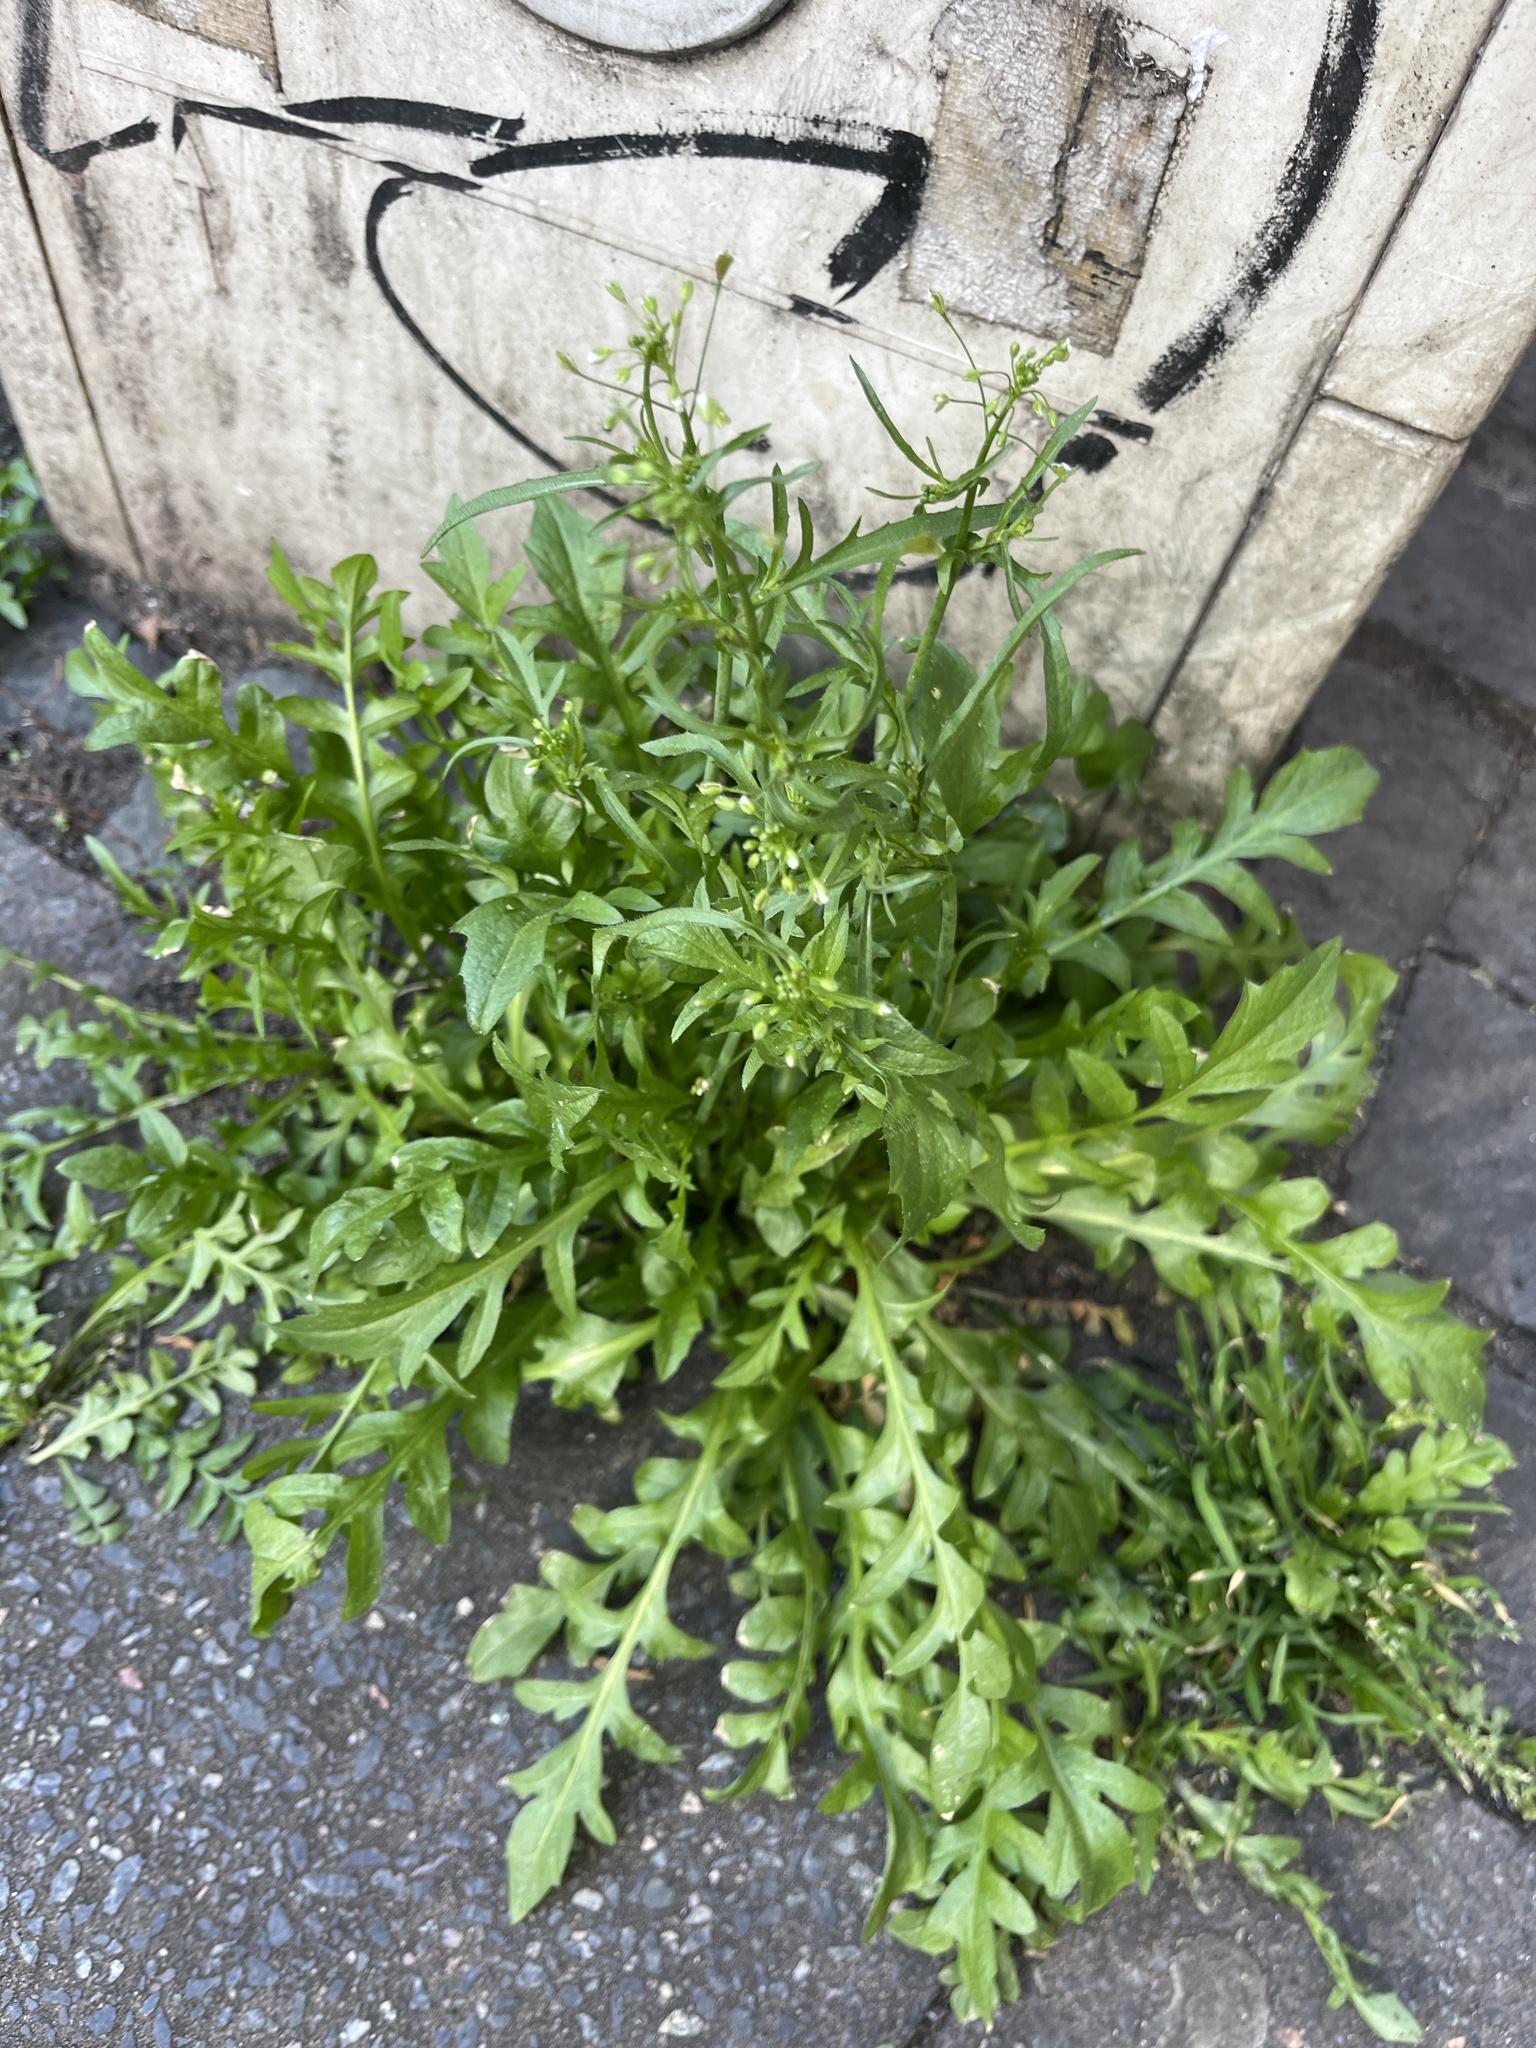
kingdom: Plantae
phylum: Tracheophyta
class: Magnoliopsida
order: Brassicales
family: Brassicaceae
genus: Capsella
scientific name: Capsella bursa-pastoris
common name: Shepherd's purse
